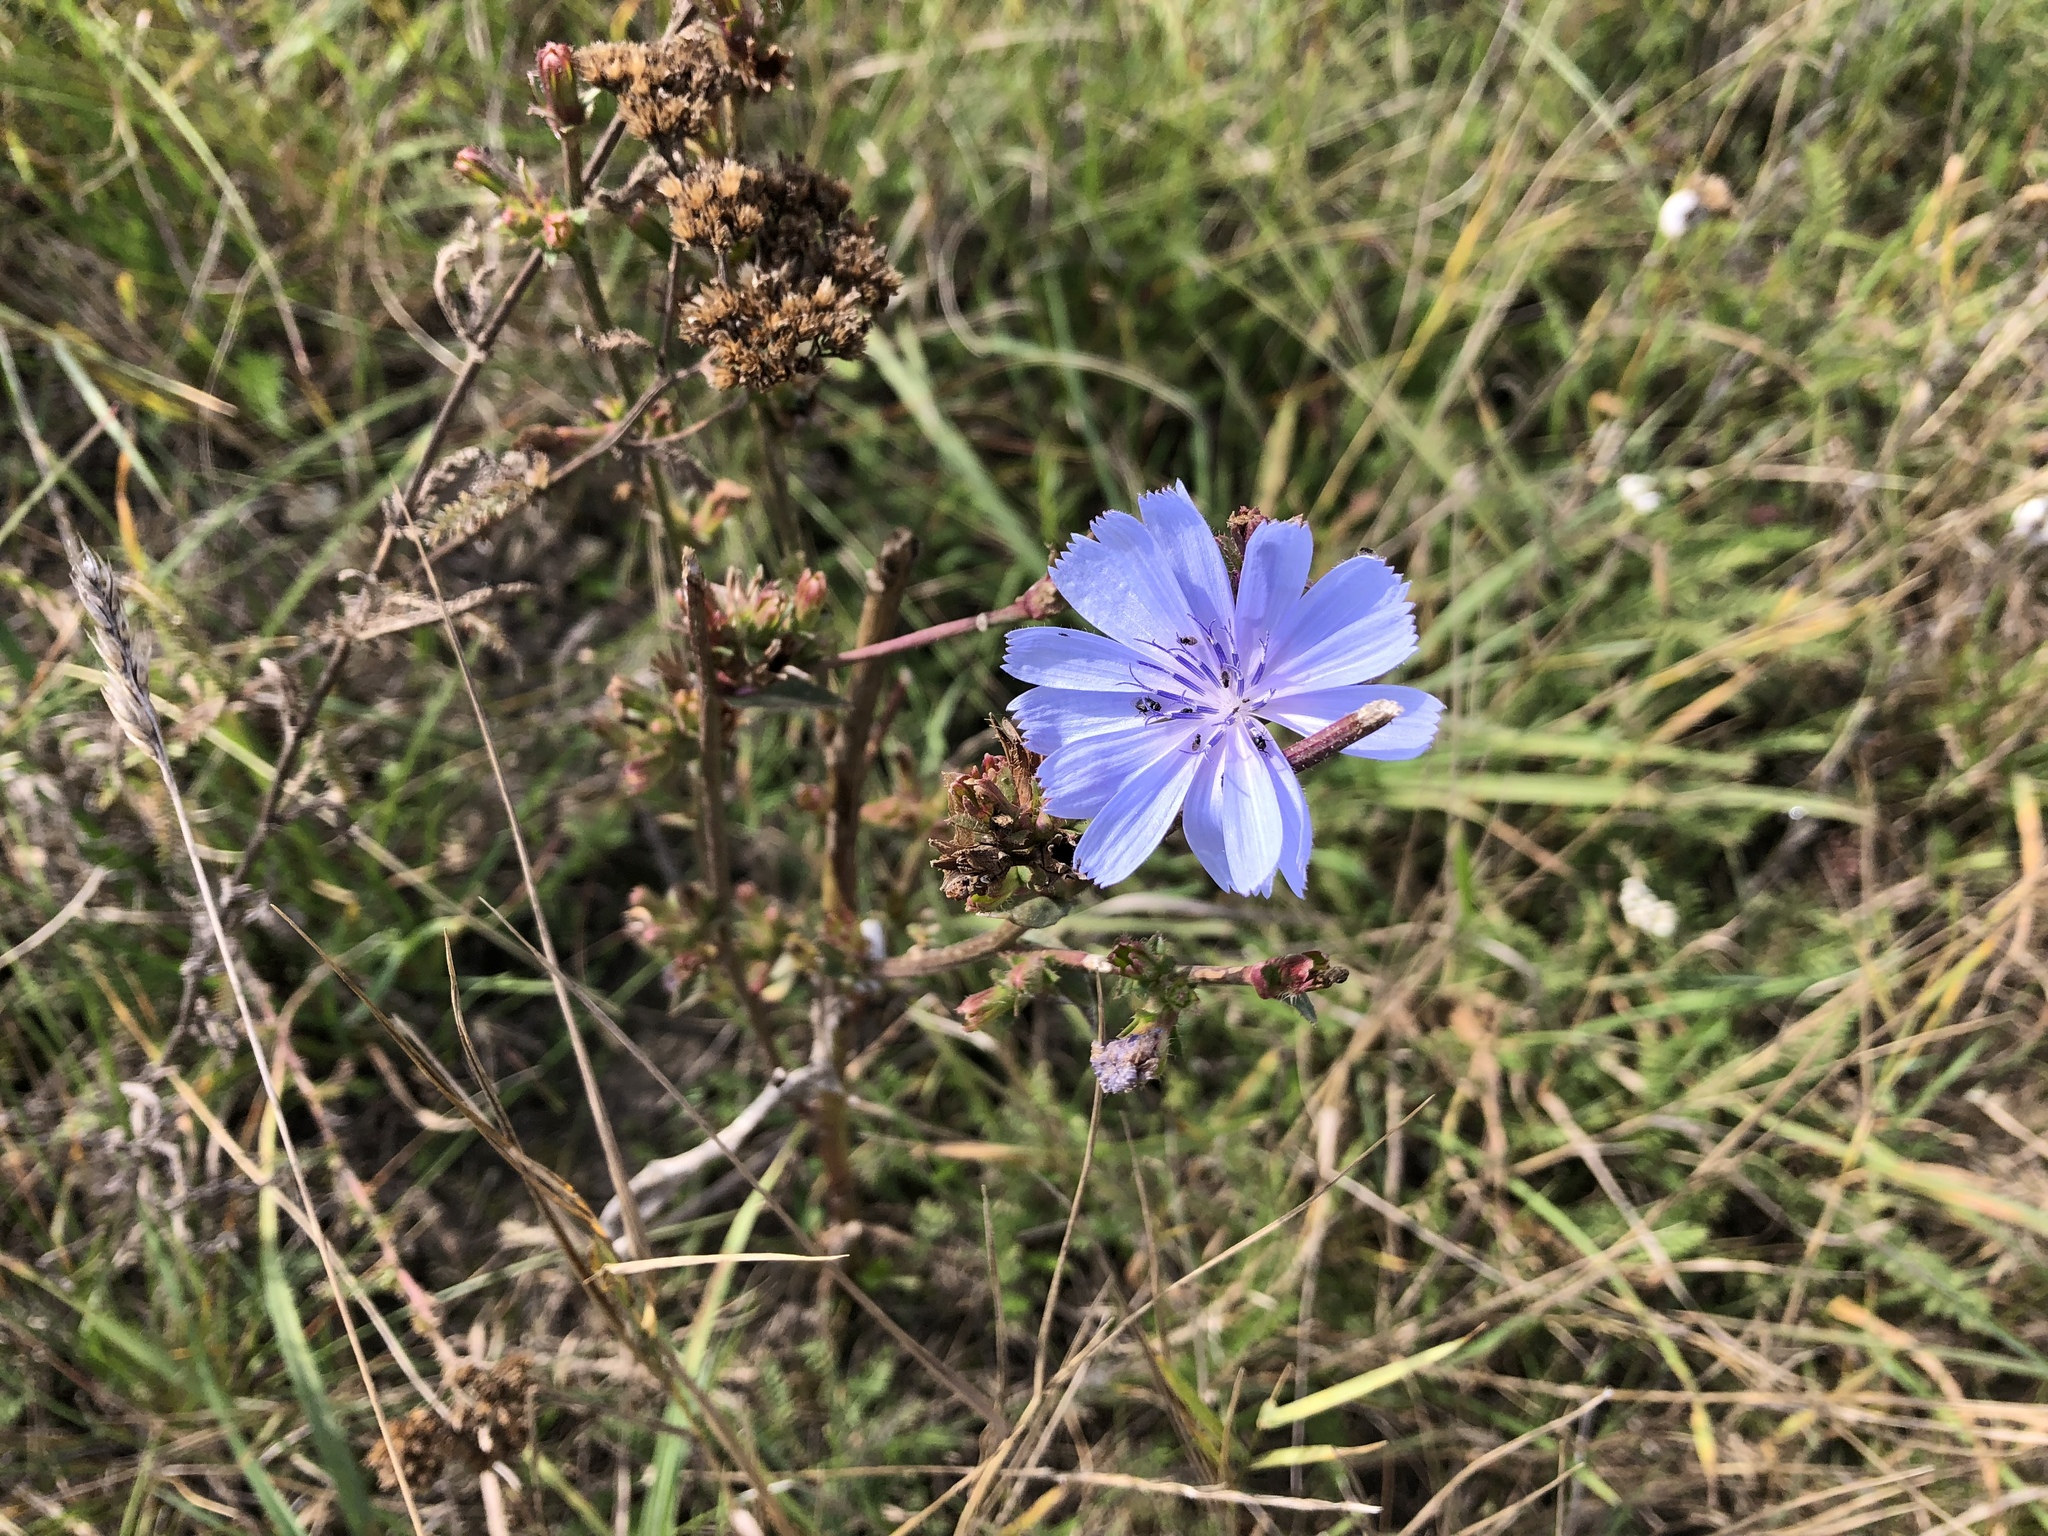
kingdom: Plantae
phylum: Tracheophyta
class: Magnoliopsida
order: Asterales
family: Asteraceae
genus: Cichorium
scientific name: Cichorium intybus
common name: Chicory
